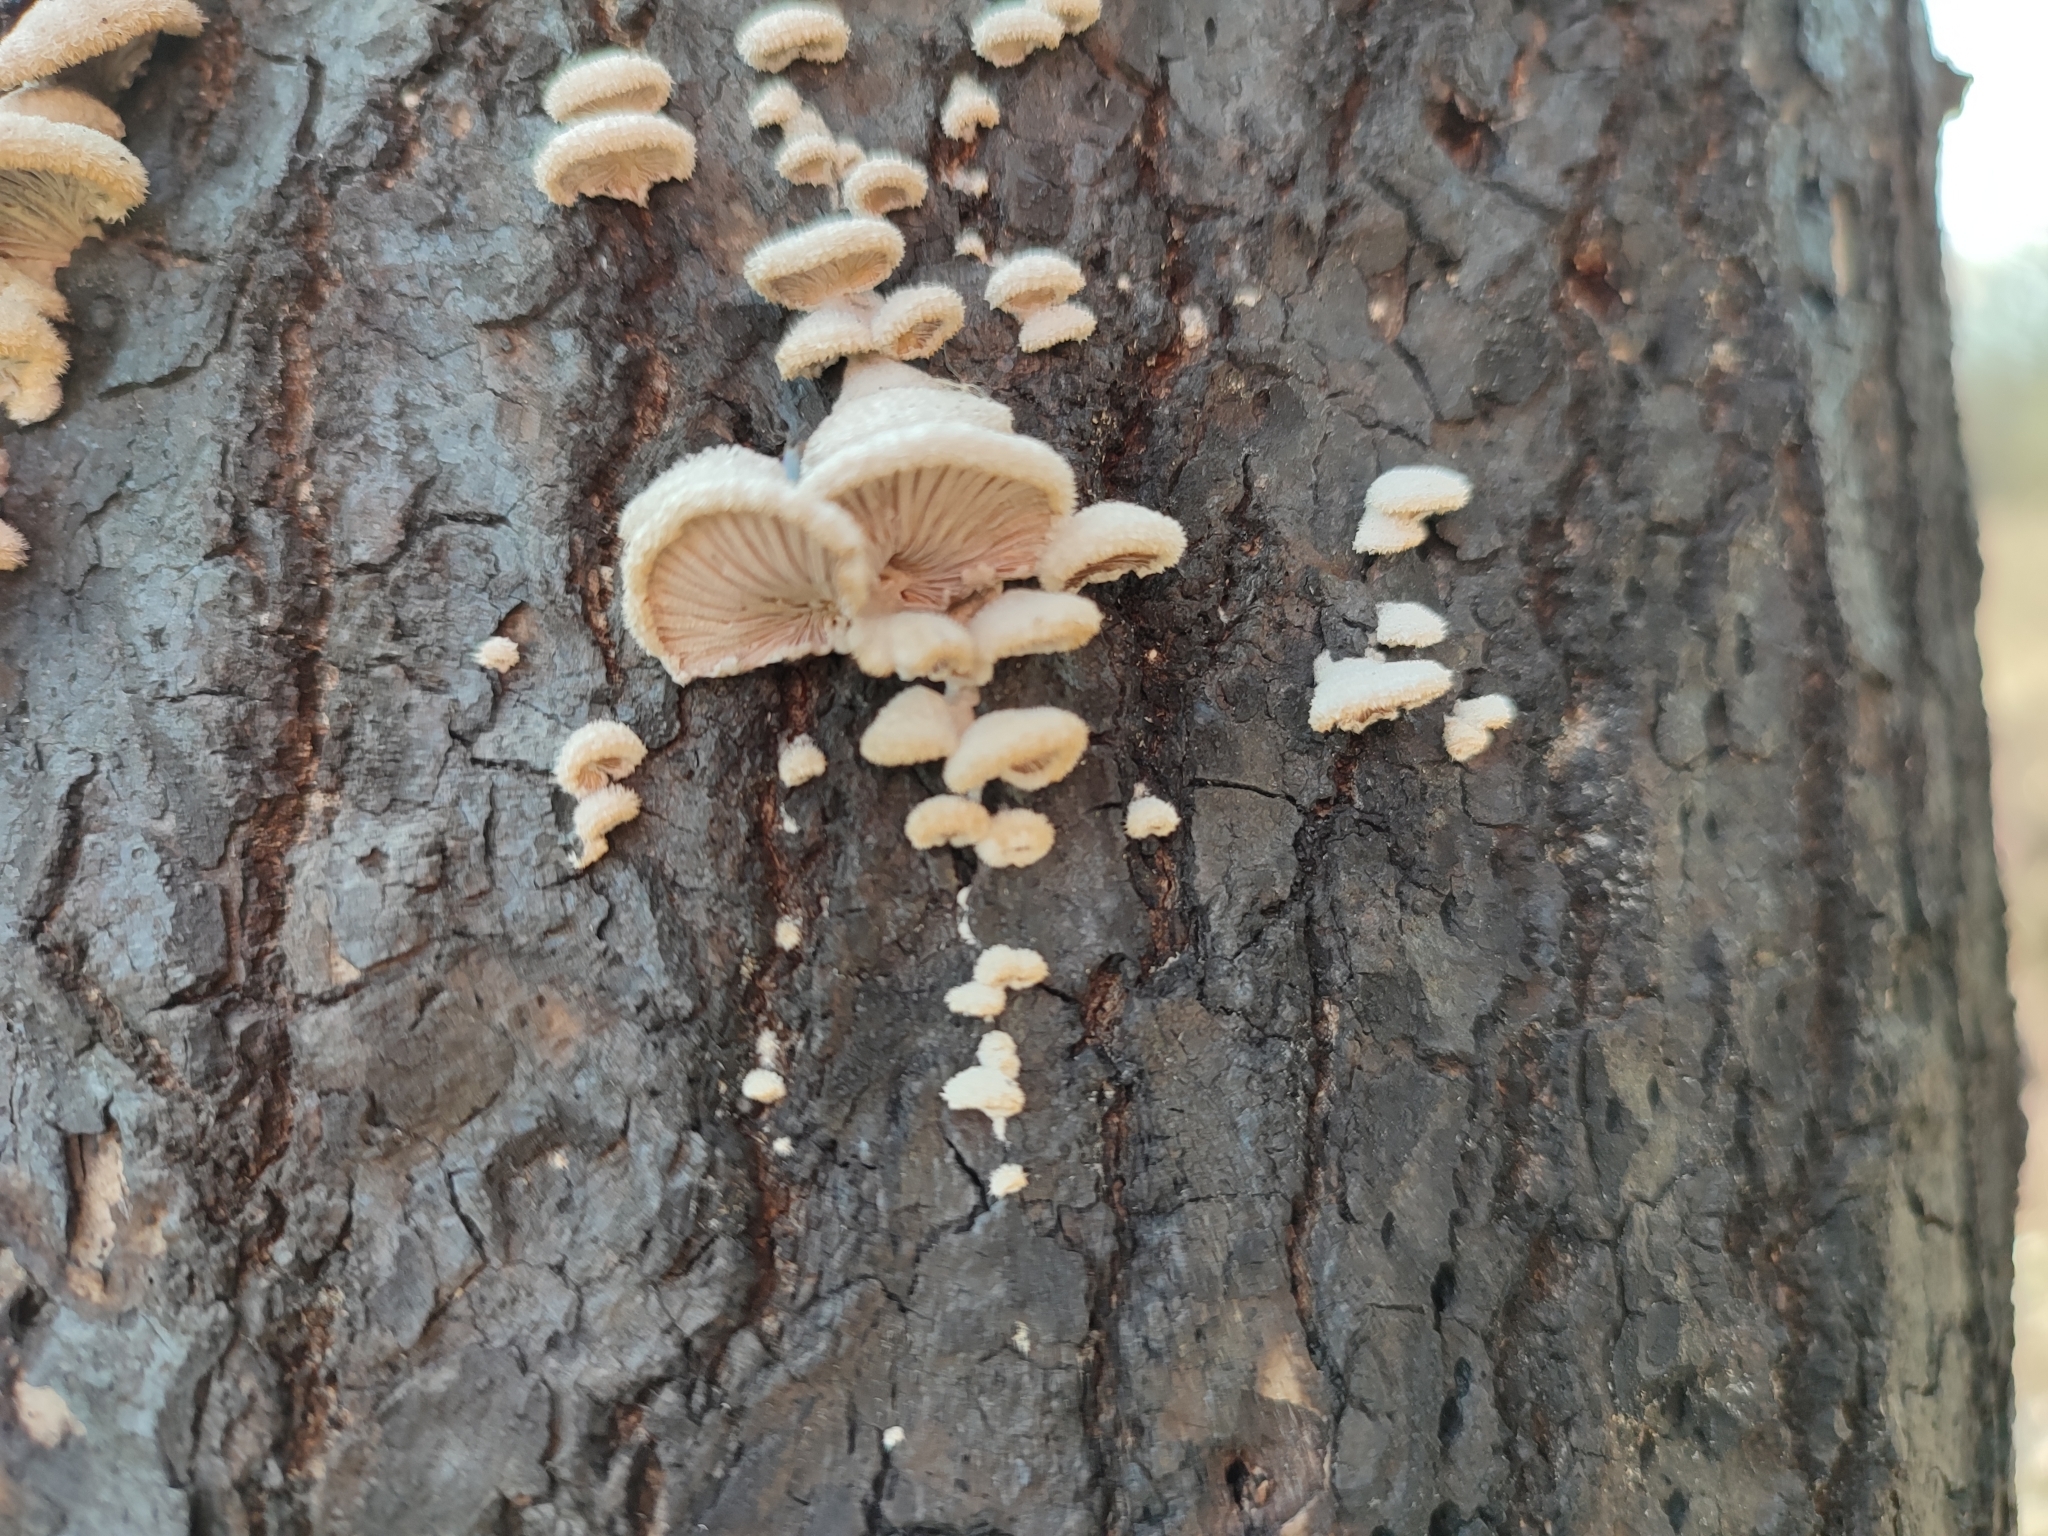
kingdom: Fungi
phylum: Basidiomycota
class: Agaricomycetes
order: Agaricales
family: Schizophyllaceae
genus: Schizophyllum
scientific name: Schizophyllum commune
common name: Common porecrust
